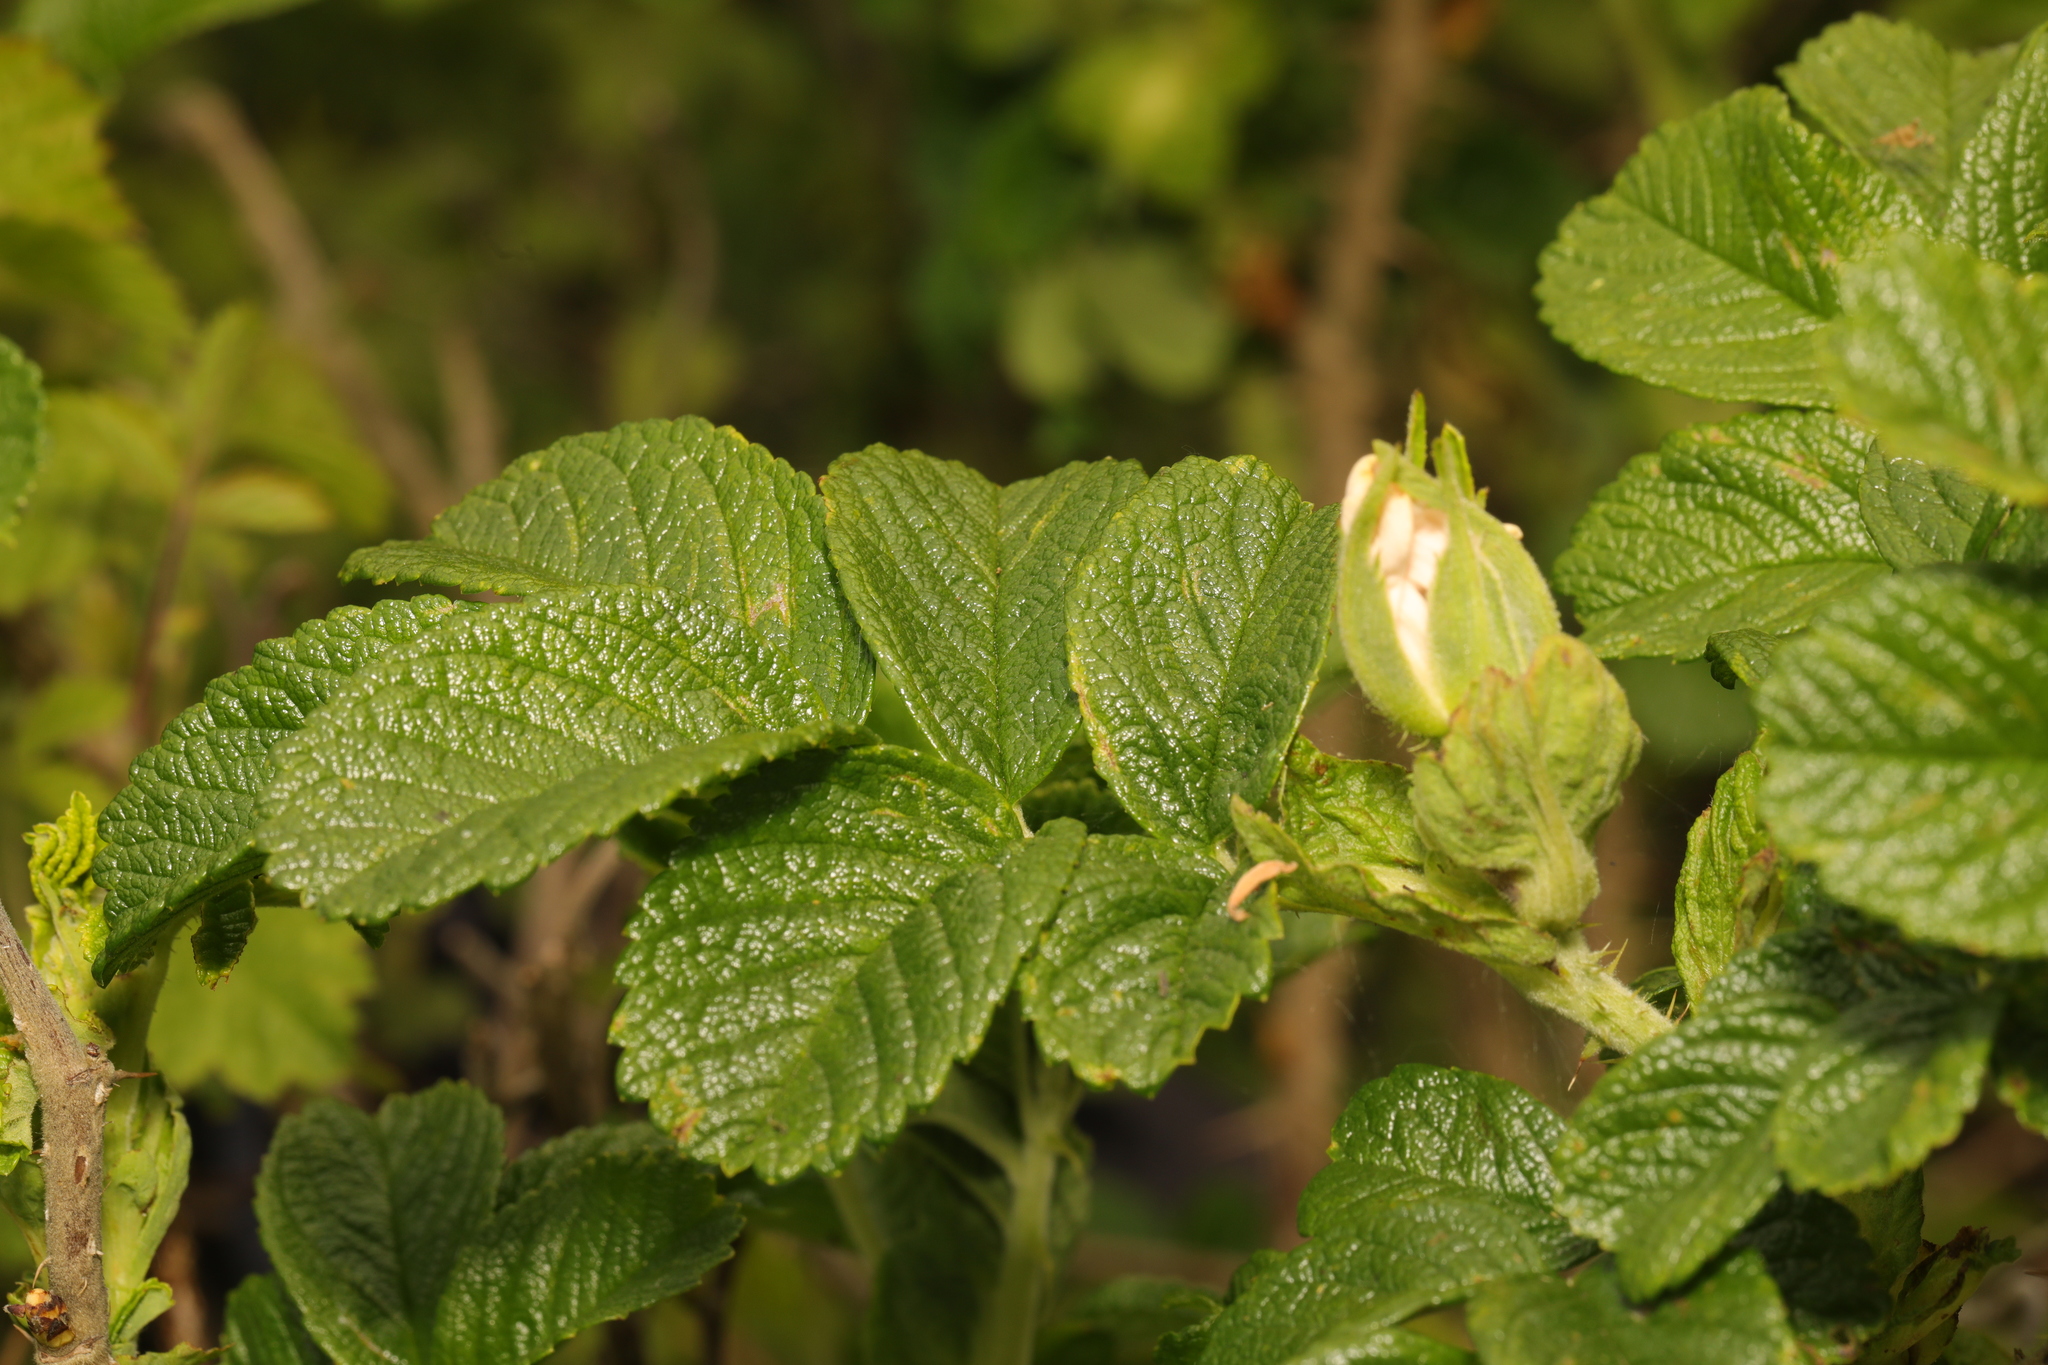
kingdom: Plantae
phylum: Tracheophyta
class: Magnoliopsida
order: Rosales
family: Rosaceae
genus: Rosa
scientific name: Rosa rugosa
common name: Japanese rose
